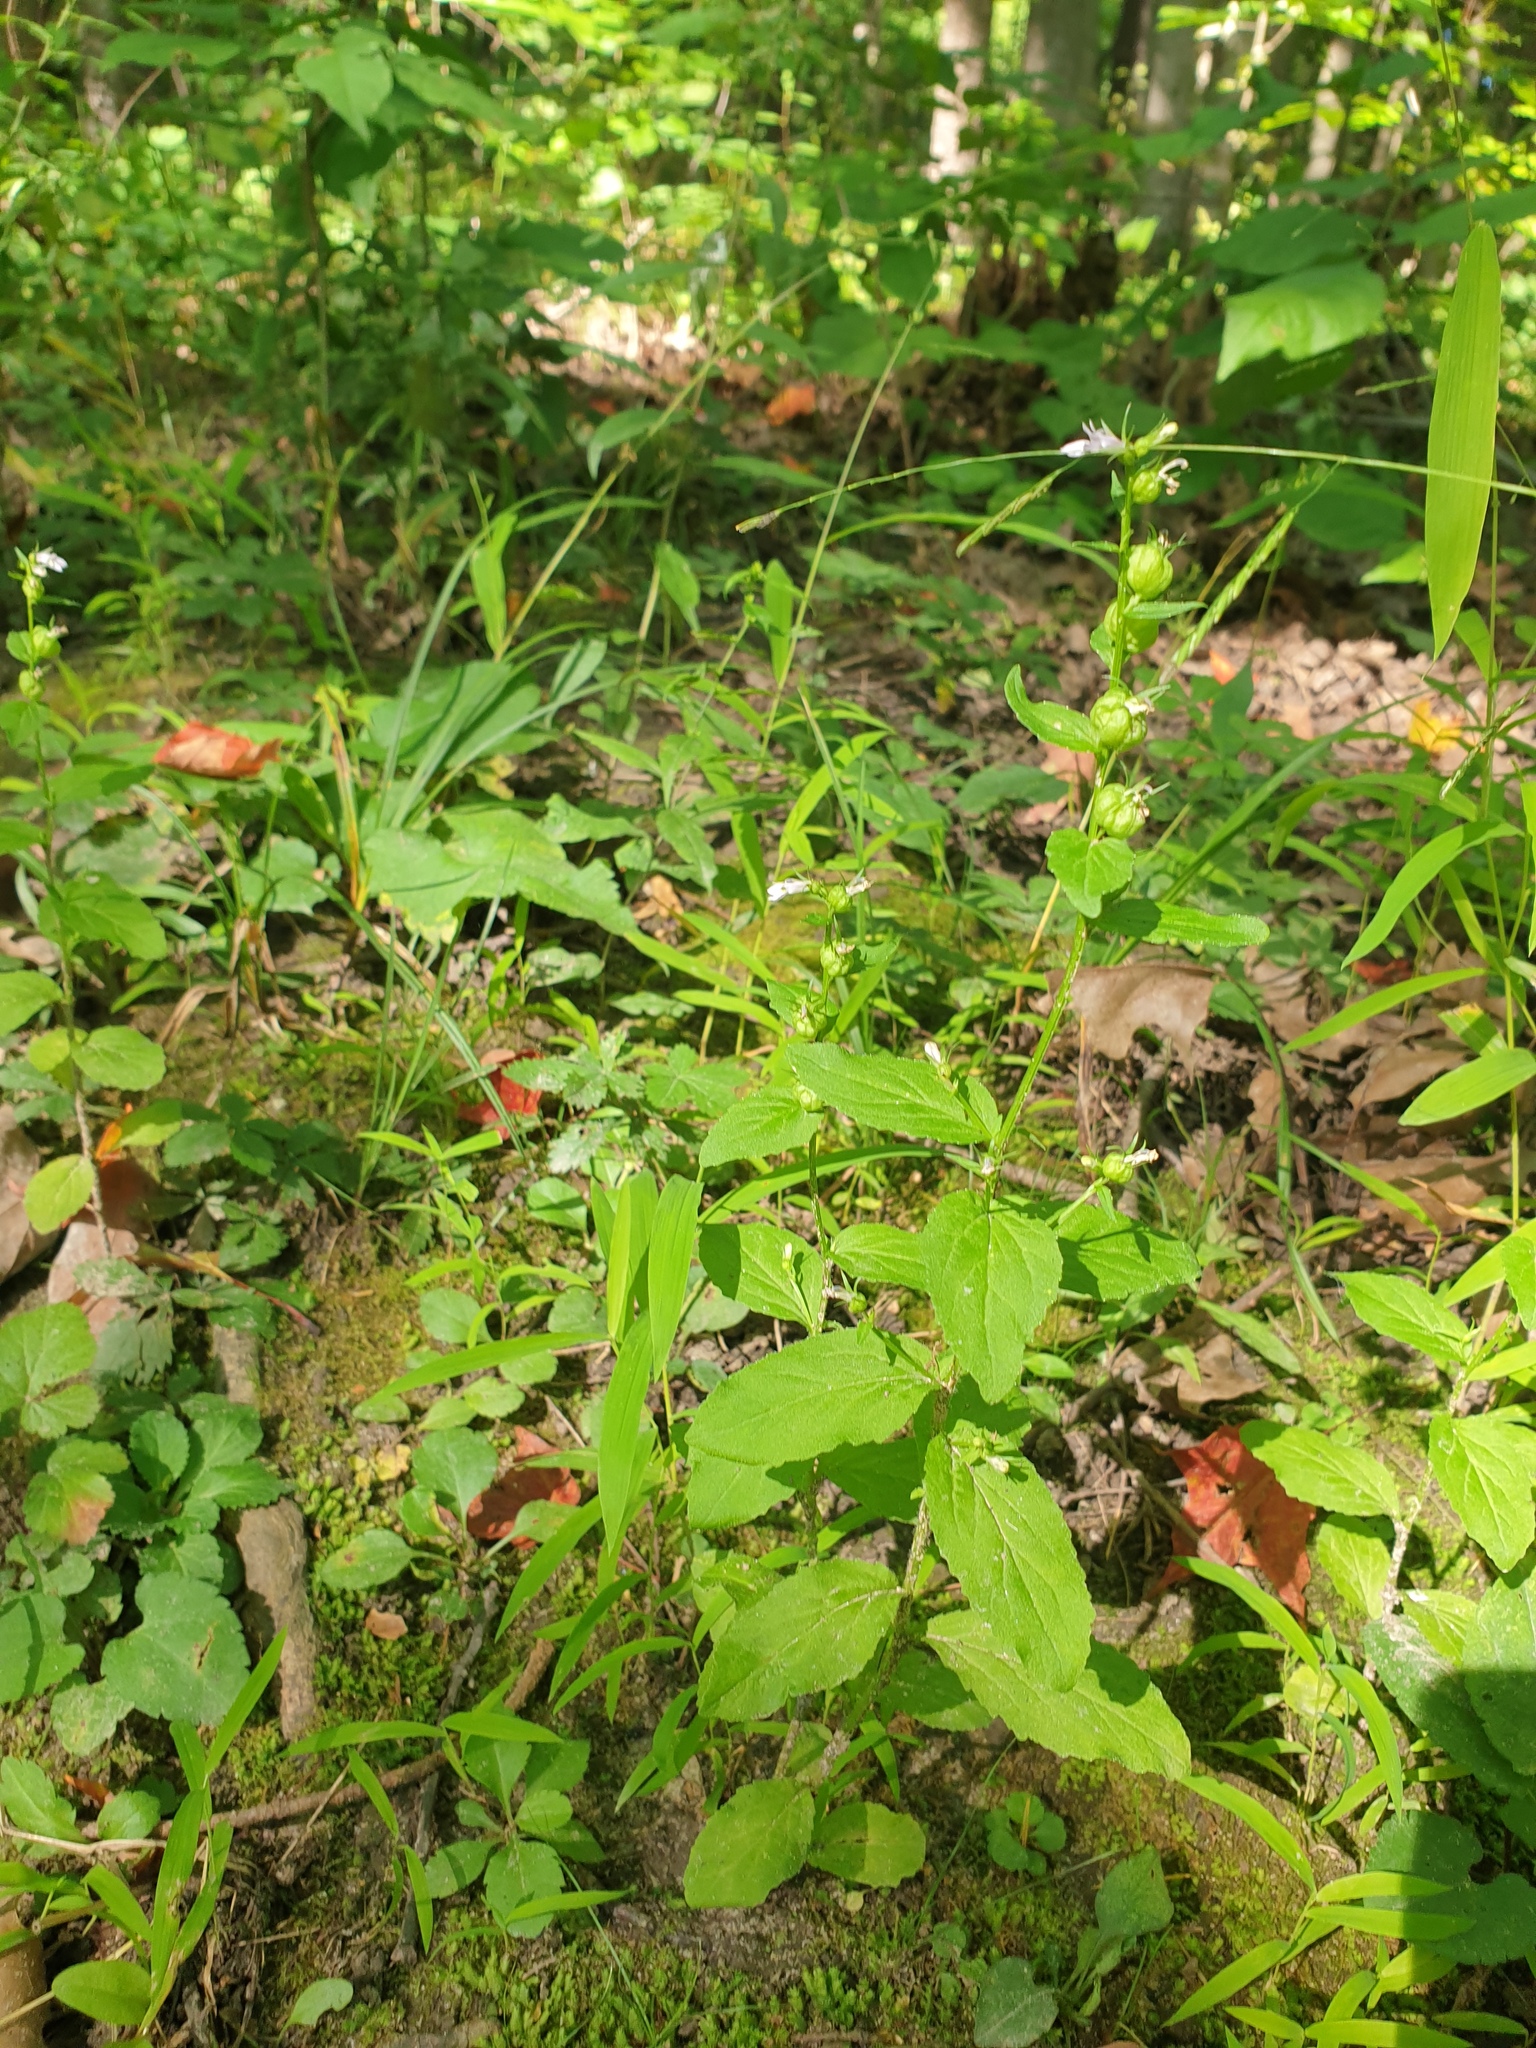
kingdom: Plantae
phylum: Tracheophyta
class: Magnoliopsida
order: Asterales
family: Campanulaceae
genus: Lobelia
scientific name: Lobelia inflata
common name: Indian tobacco
